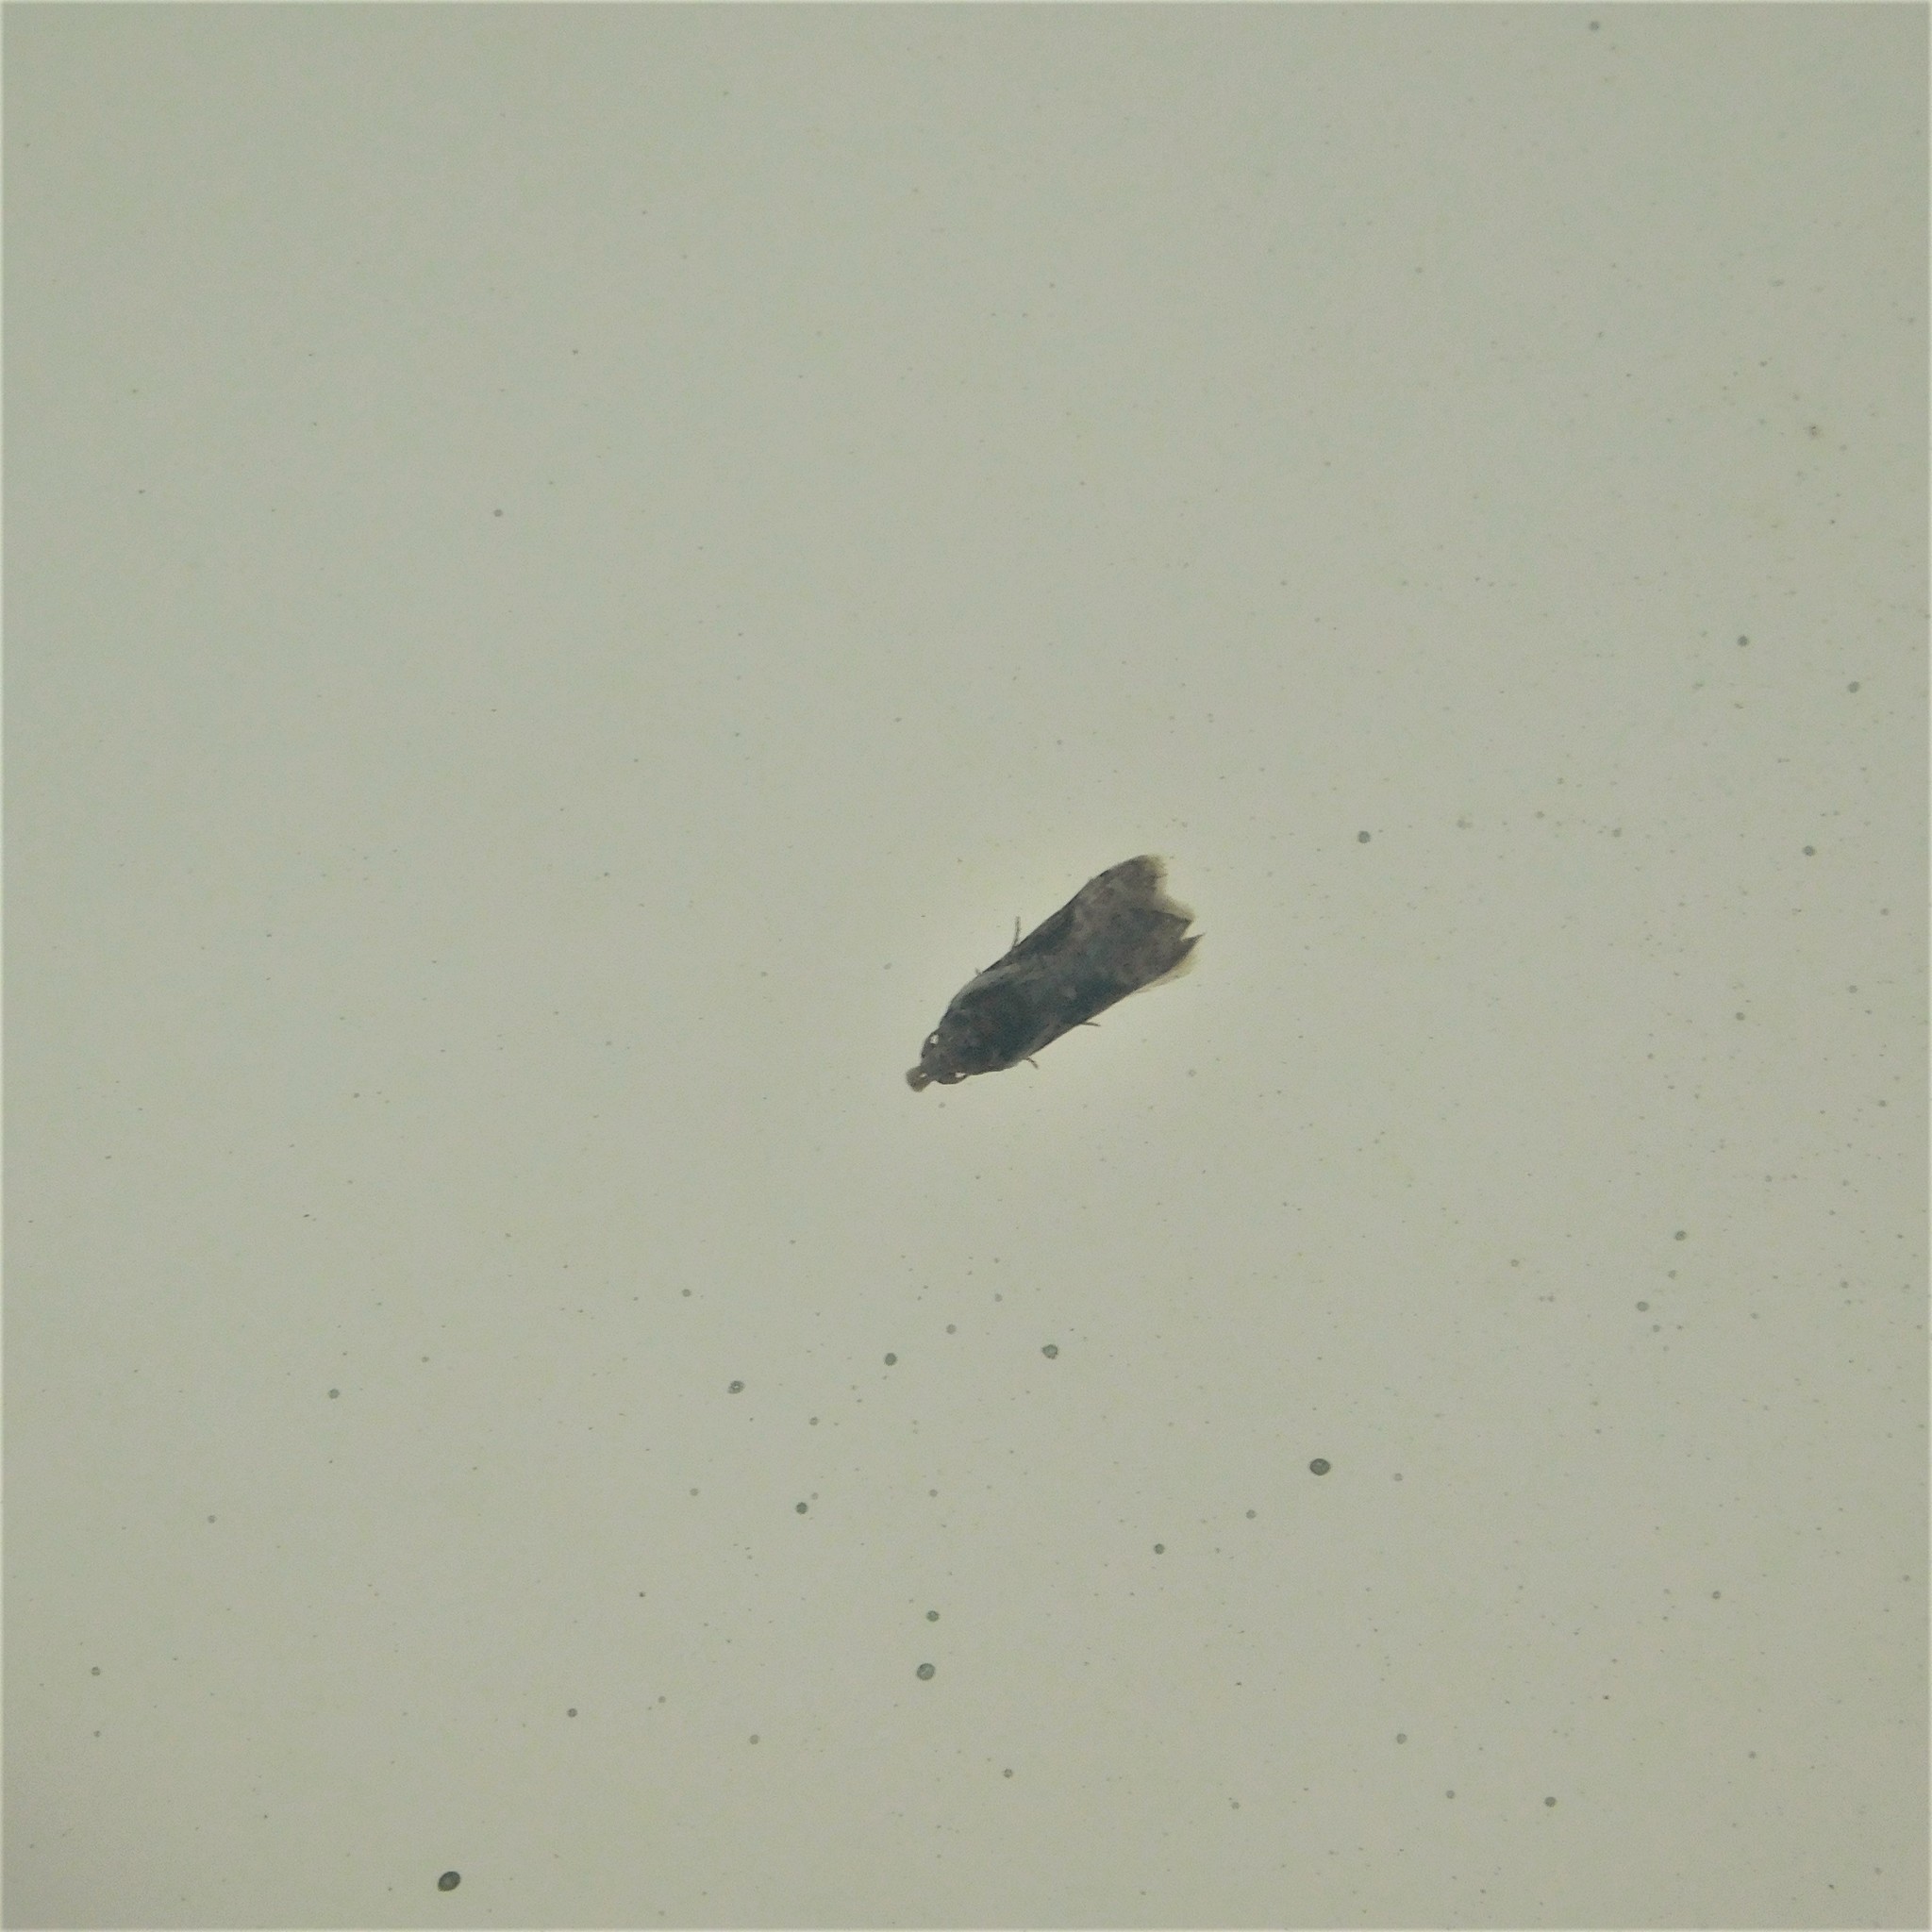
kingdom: Animalia
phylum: Arthropoda
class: Insecta
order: Lepidoptera
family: Carposinidae
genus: Coscinoptycha
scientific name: Coscinoptycha improbana
